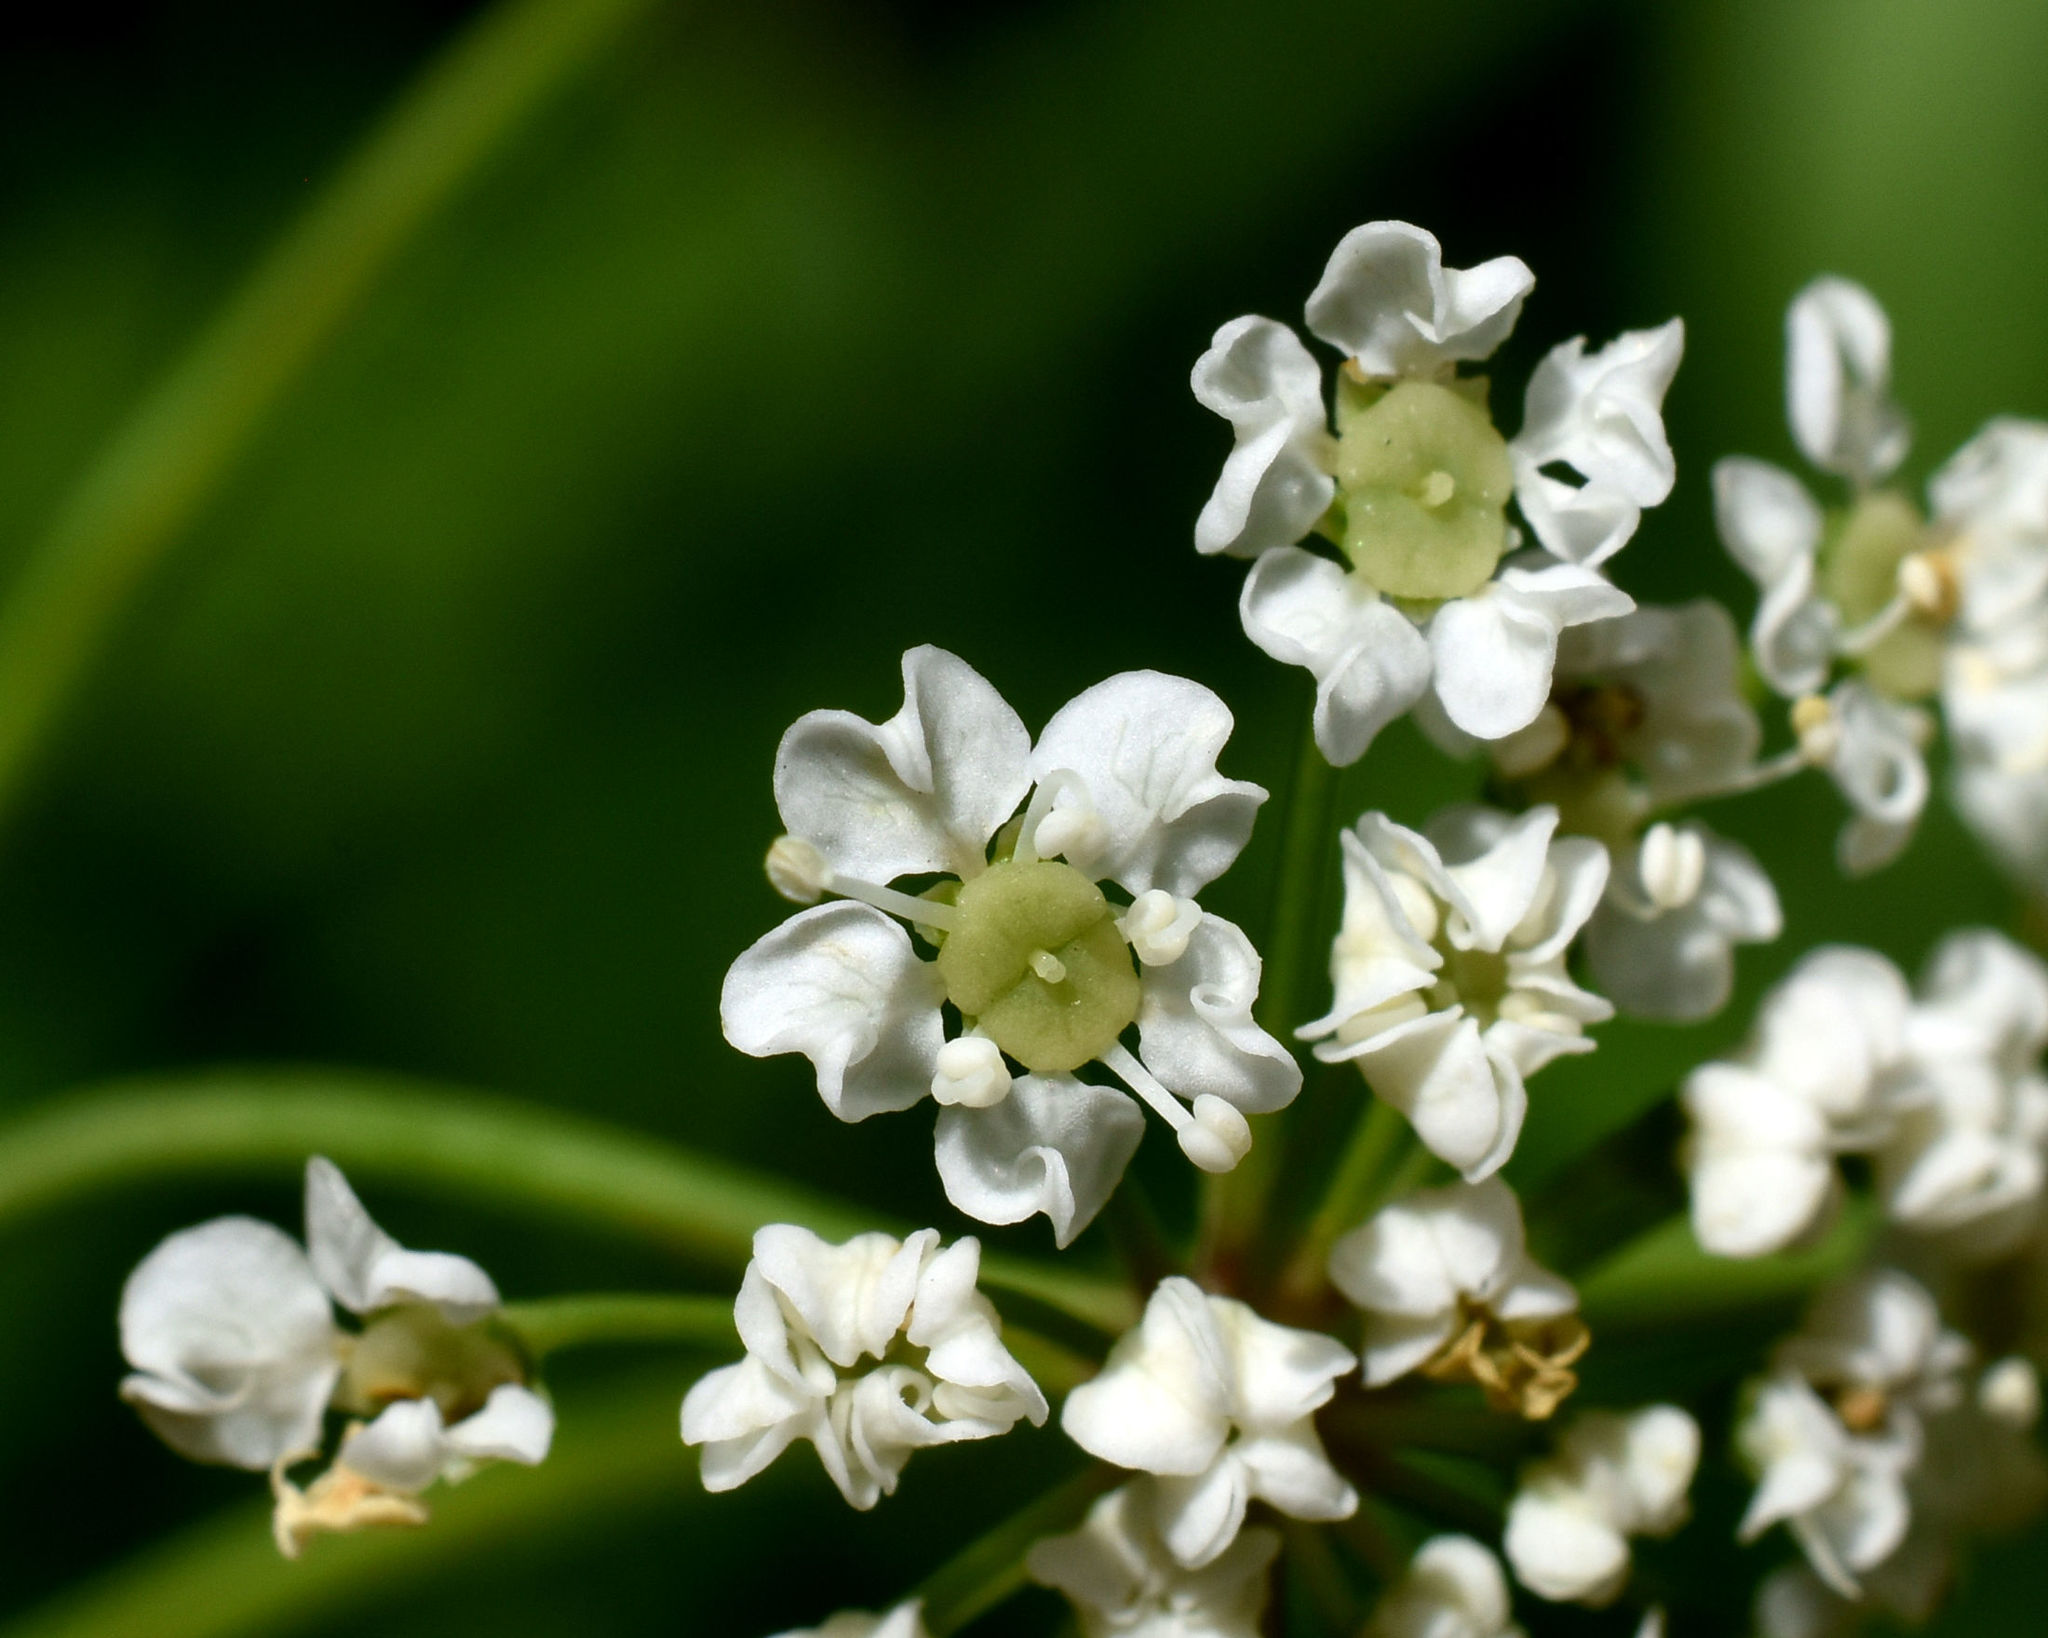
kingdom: Plantae
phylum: Tracheophyta
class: Magnoliopsida
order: Apiales
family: Apiaceae
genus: Cicuta
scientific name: Cicuta maculata
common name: Spotted cowbane
